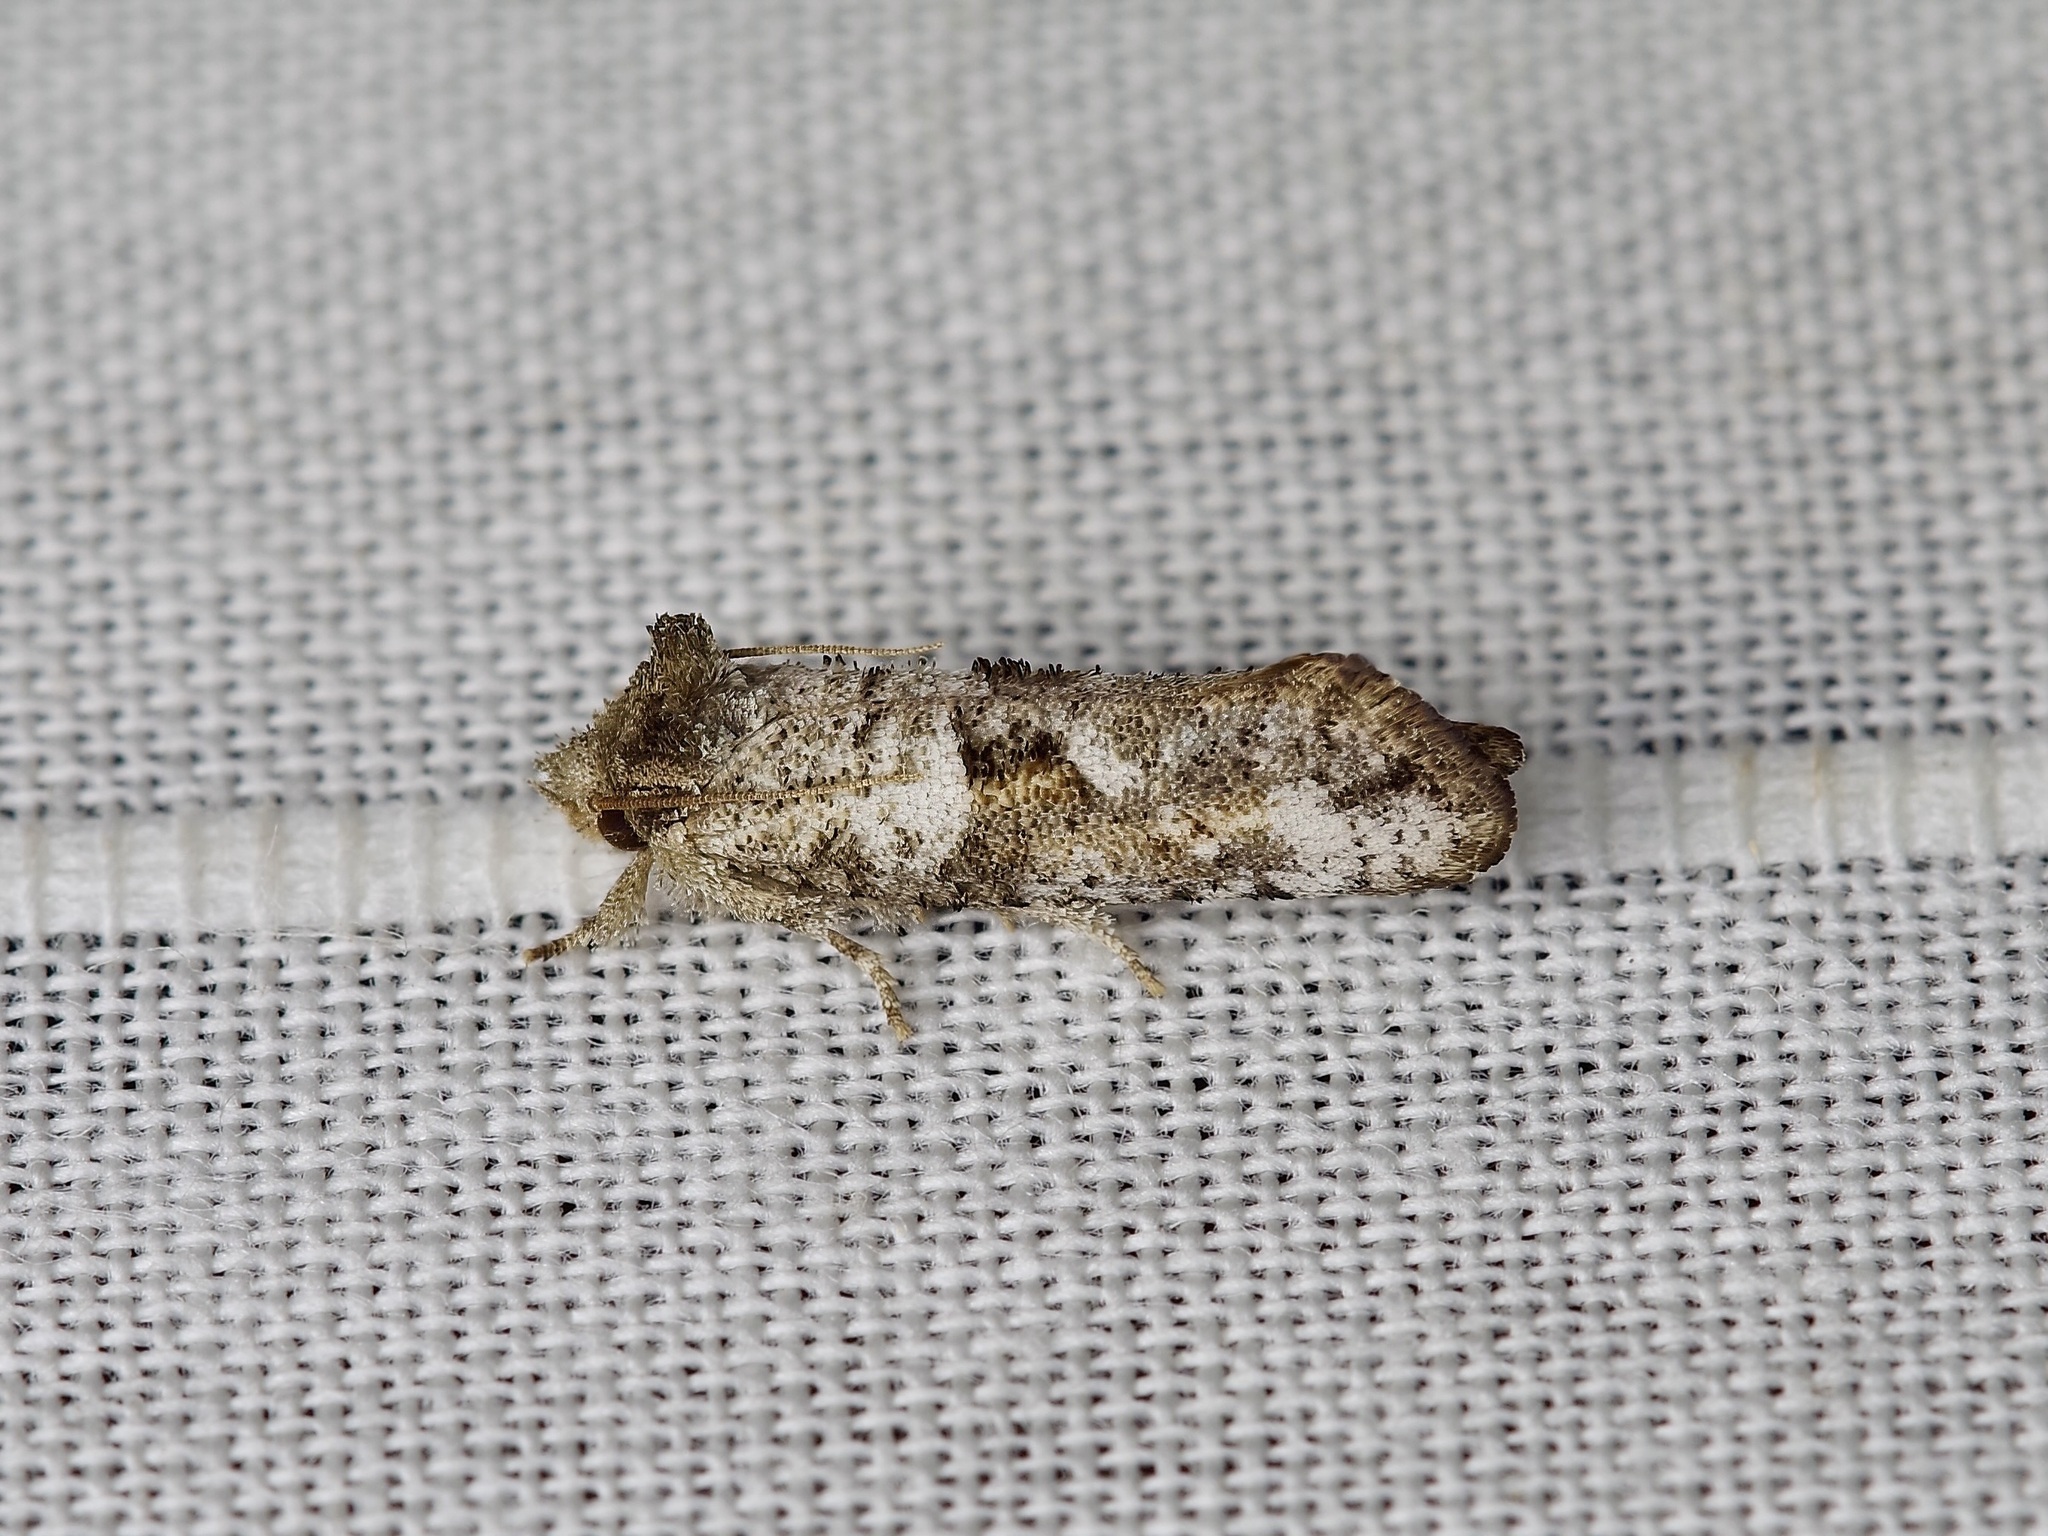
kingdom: Animalia
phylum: Arthropoda
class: Insecta
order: Lepidoptera
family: Tineidae
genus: Acrolophus
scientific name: Acrolophus piger
